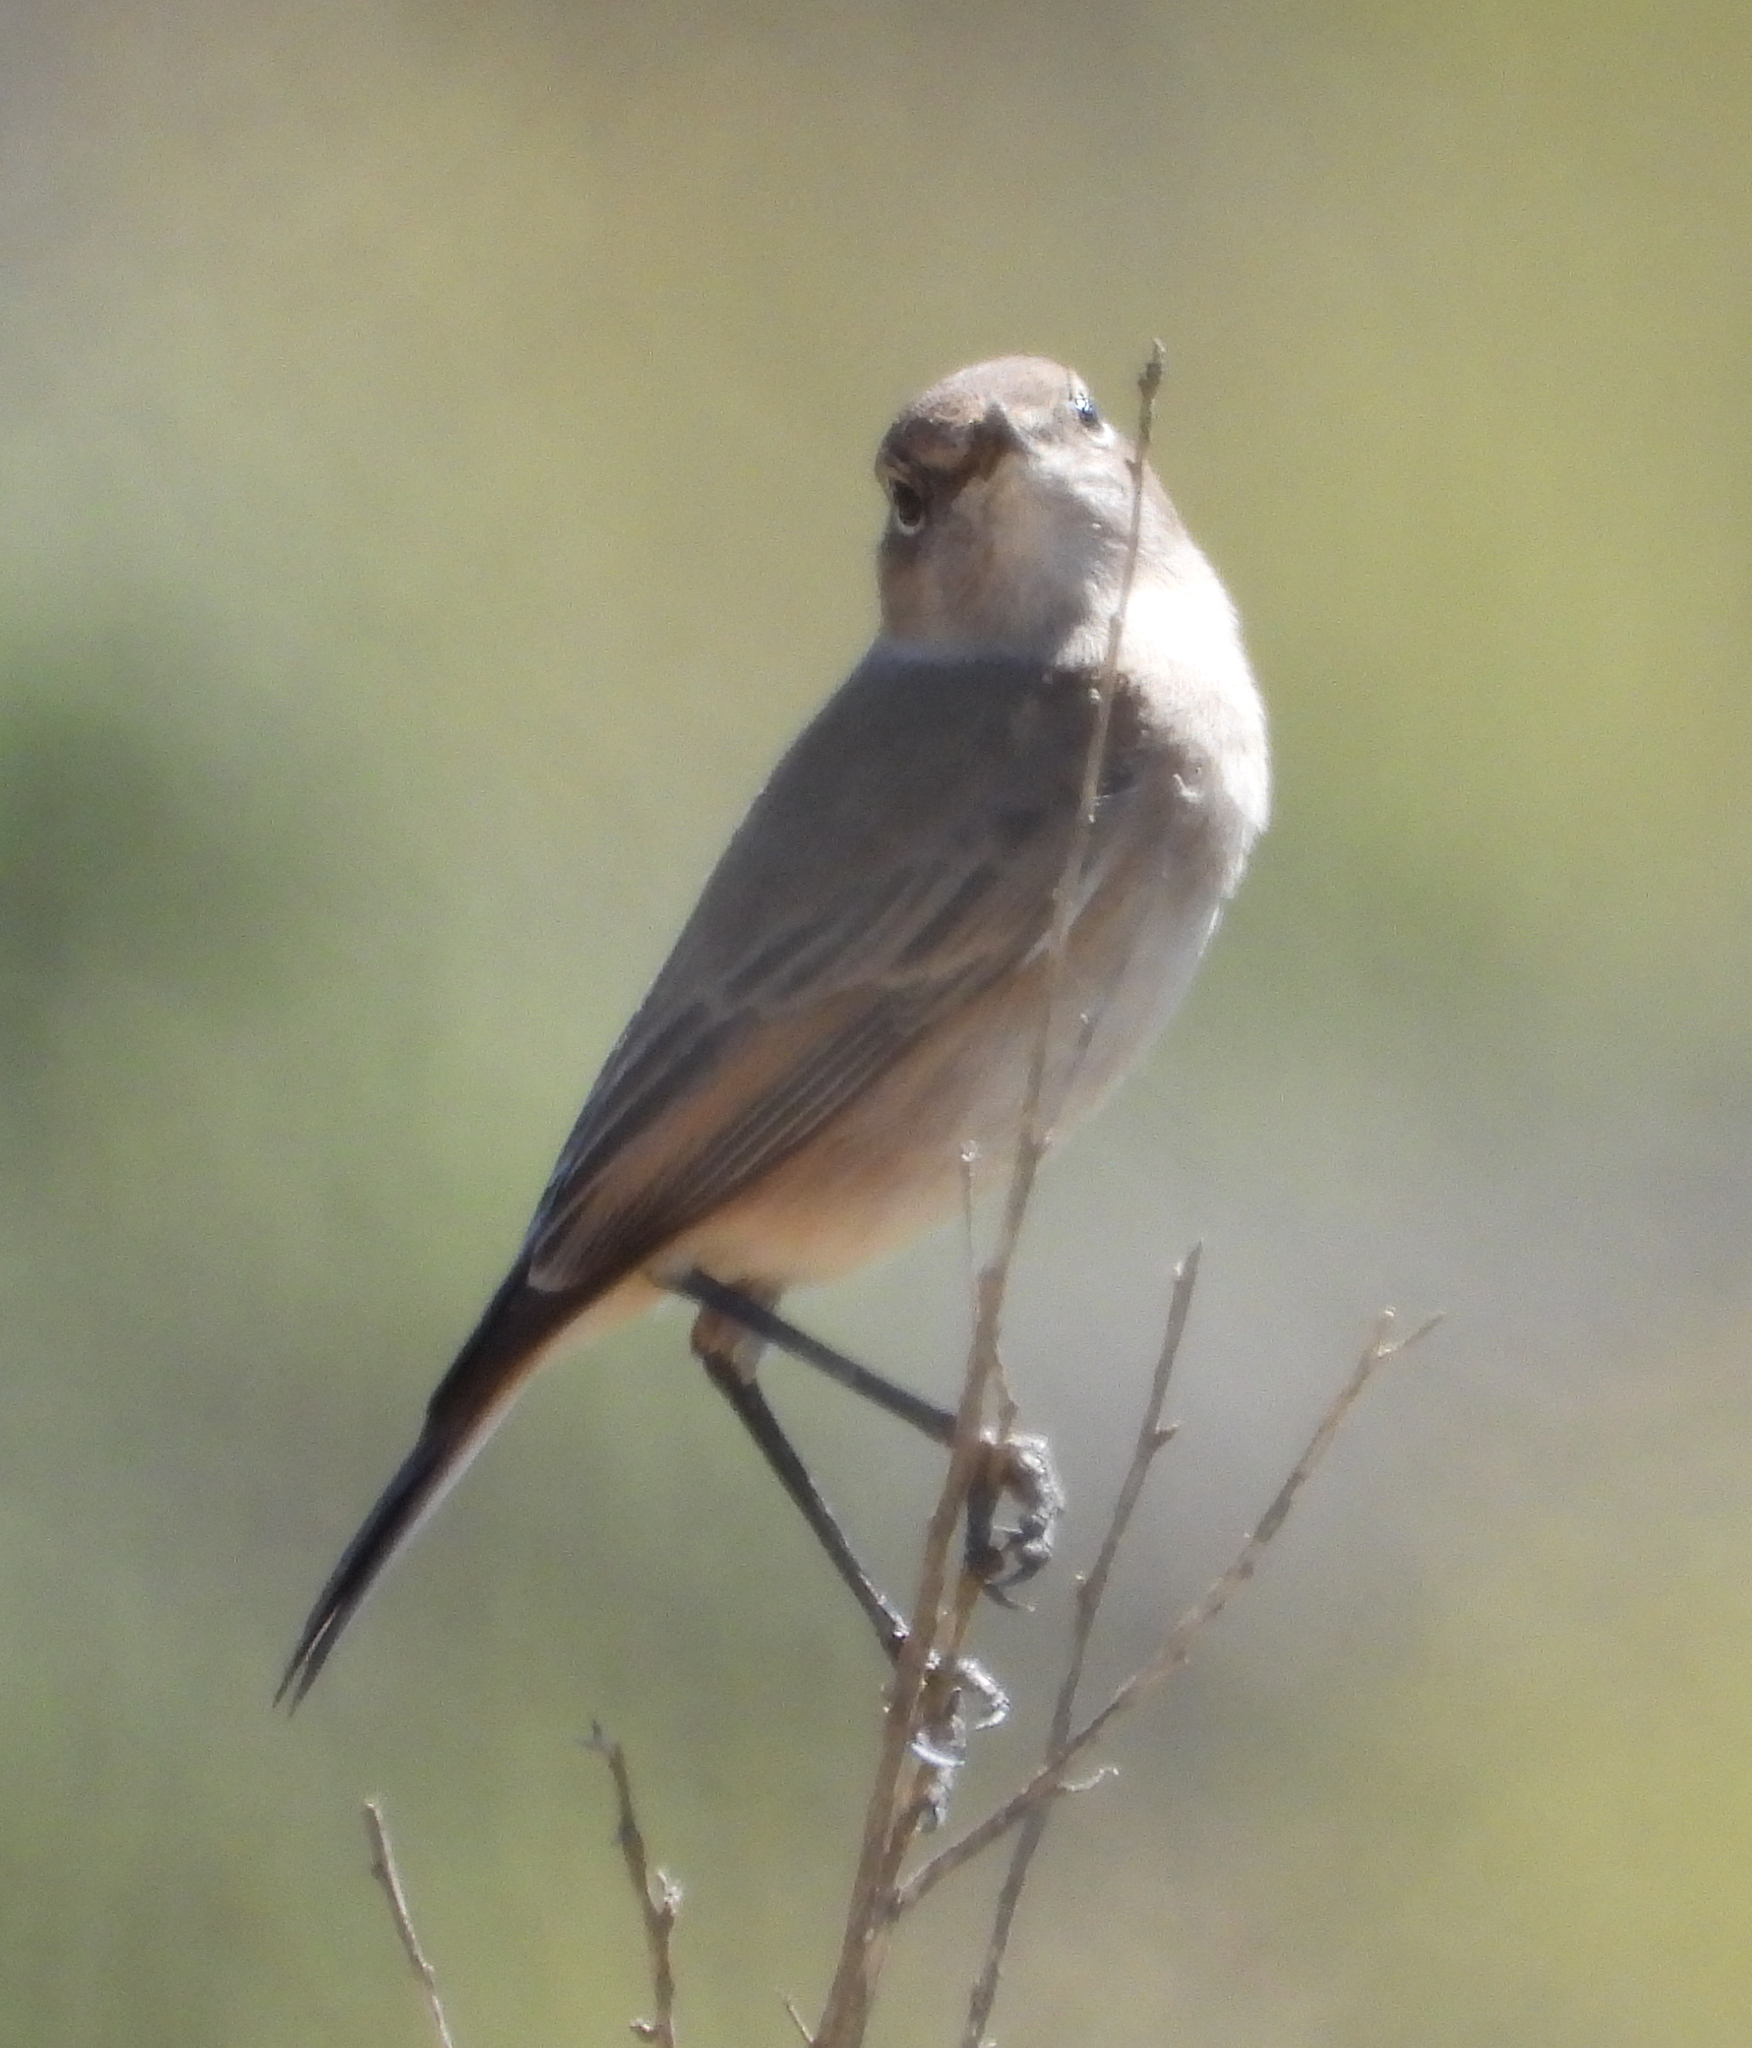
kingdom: Animalia
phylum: Chordata
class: Aves
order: Passeriformes
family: Muscicapidae
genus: Oenanthe
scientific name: Oenanthe familiaris
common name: Familiar chat
